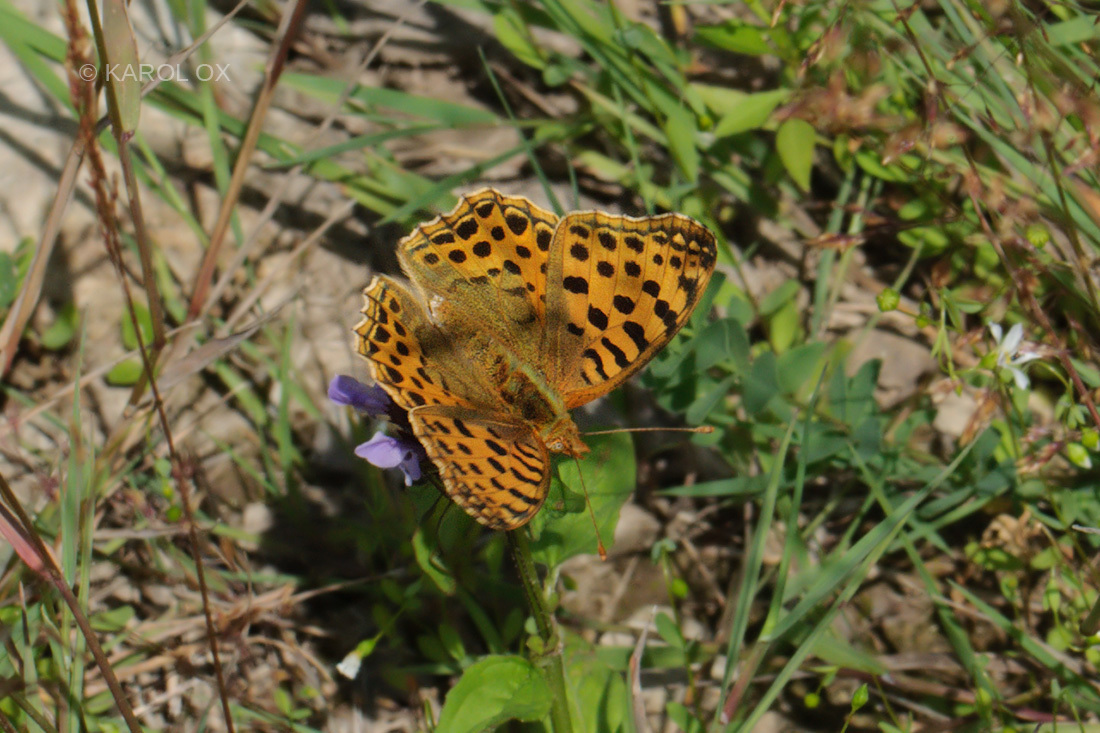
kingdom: Animalia
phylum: Arthropoda
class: Insecta
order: Lepidoptera
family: Nymphalidae
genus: Issoria
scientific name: Issoria lathonia
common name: Queen of spain fritillary
